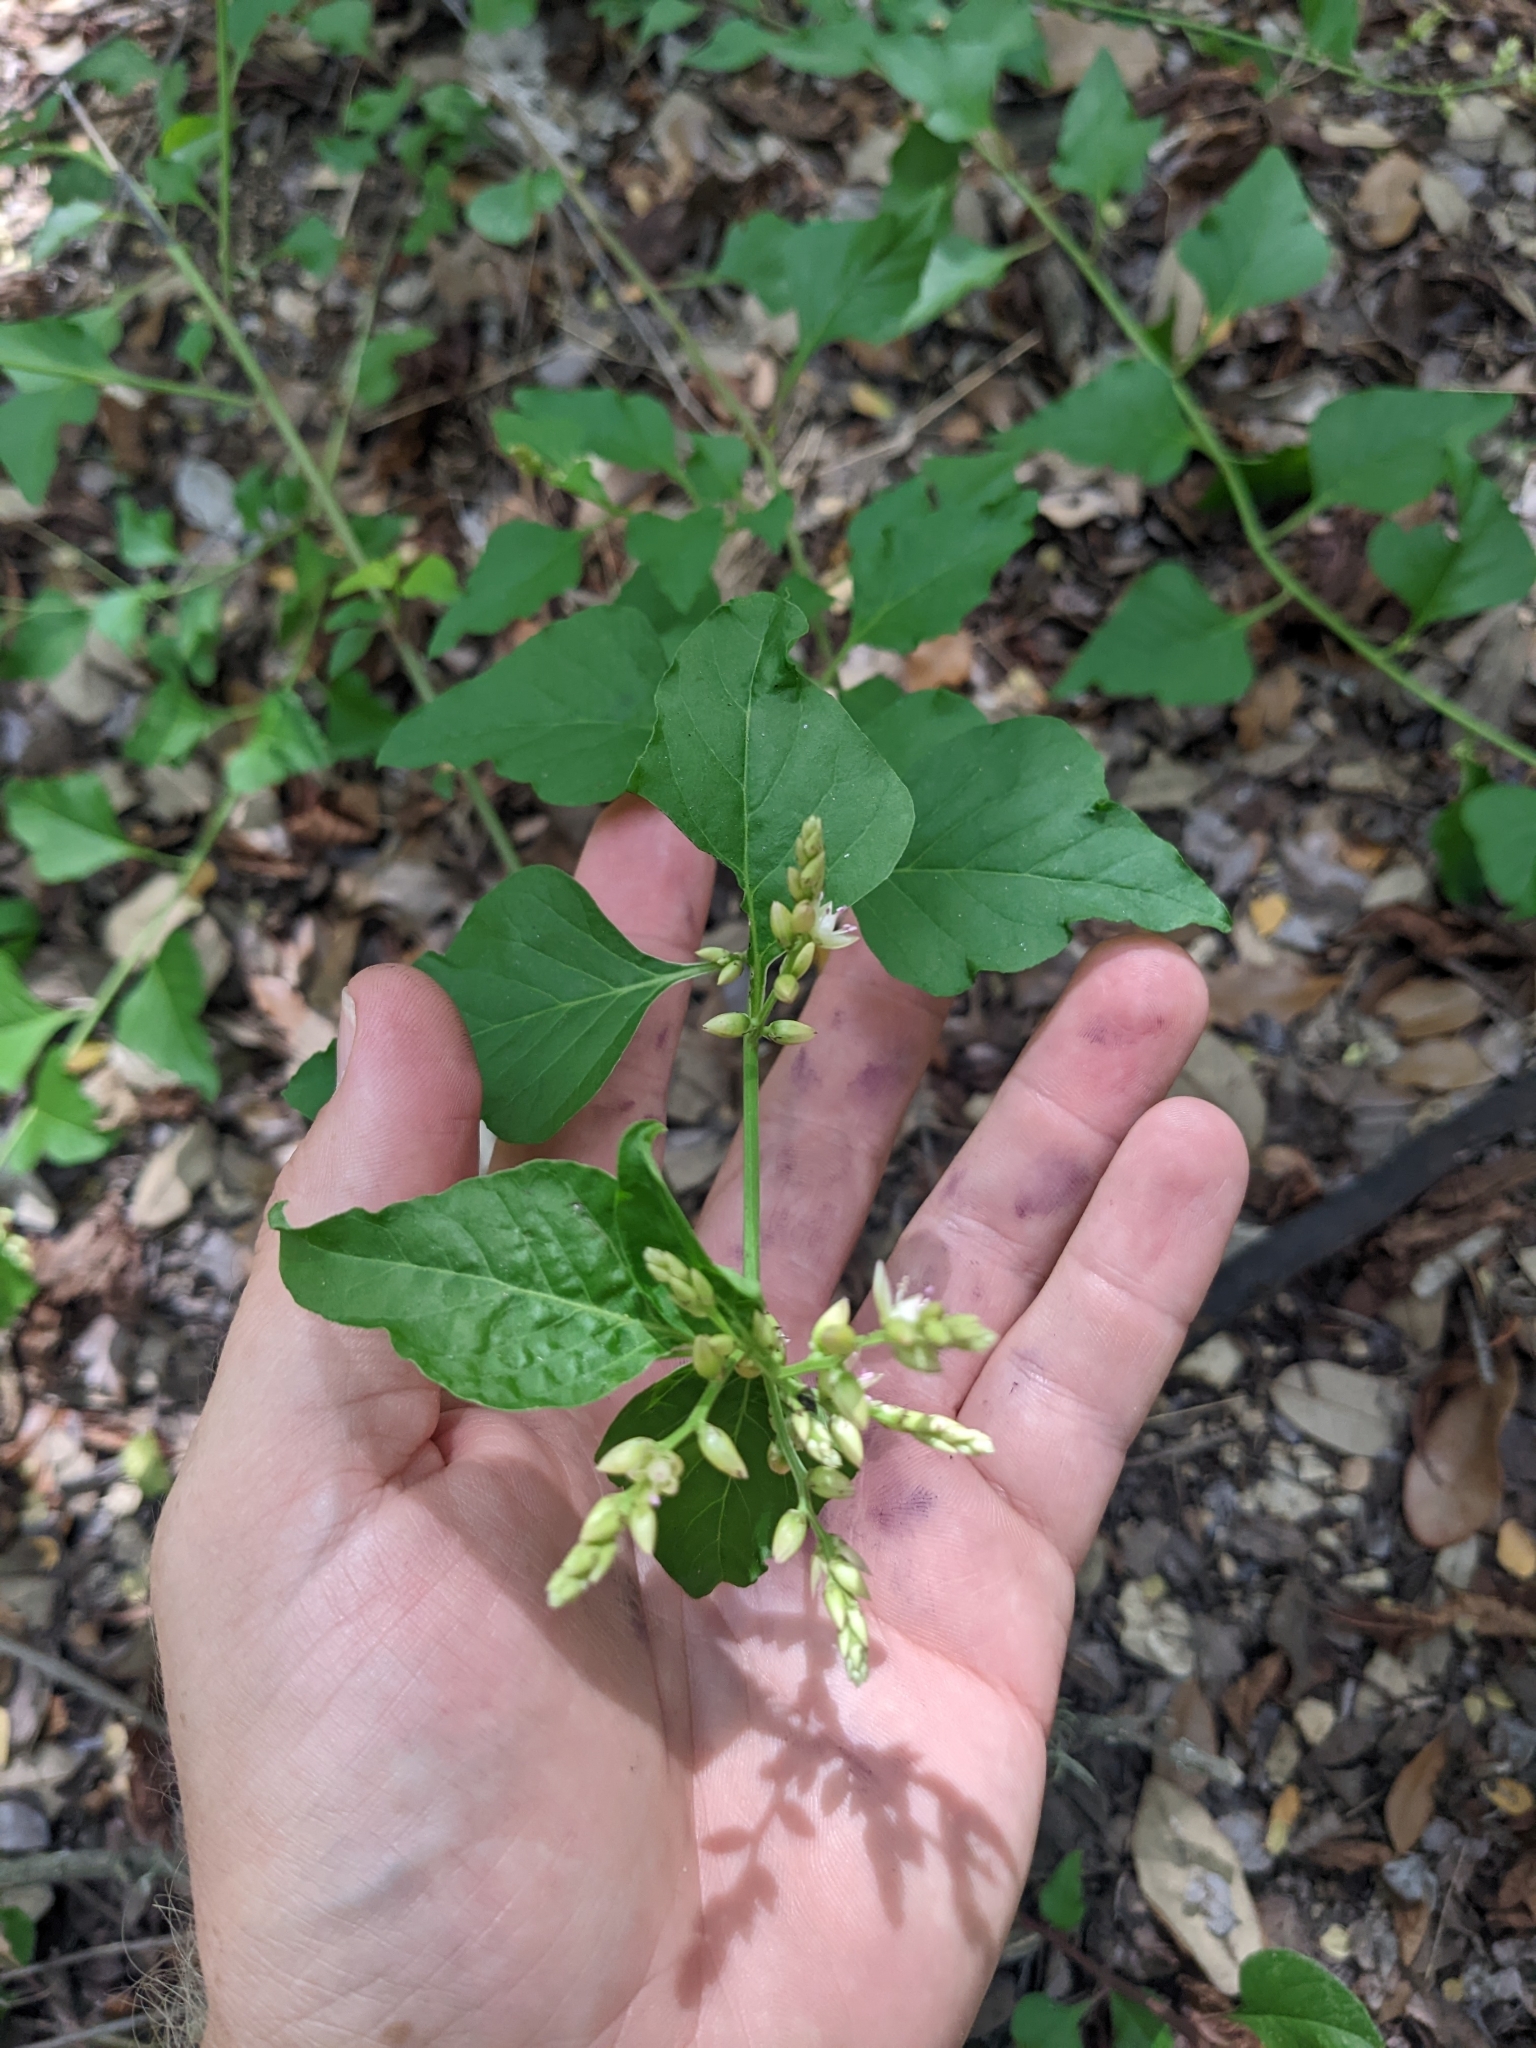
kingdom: Plantae
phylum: Tracheophyta
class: Magnoliopsida
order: Caryophyllales
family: Amaranthaceae
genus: Celosia
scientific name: Celosia nitida
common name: West indian cock's comb
